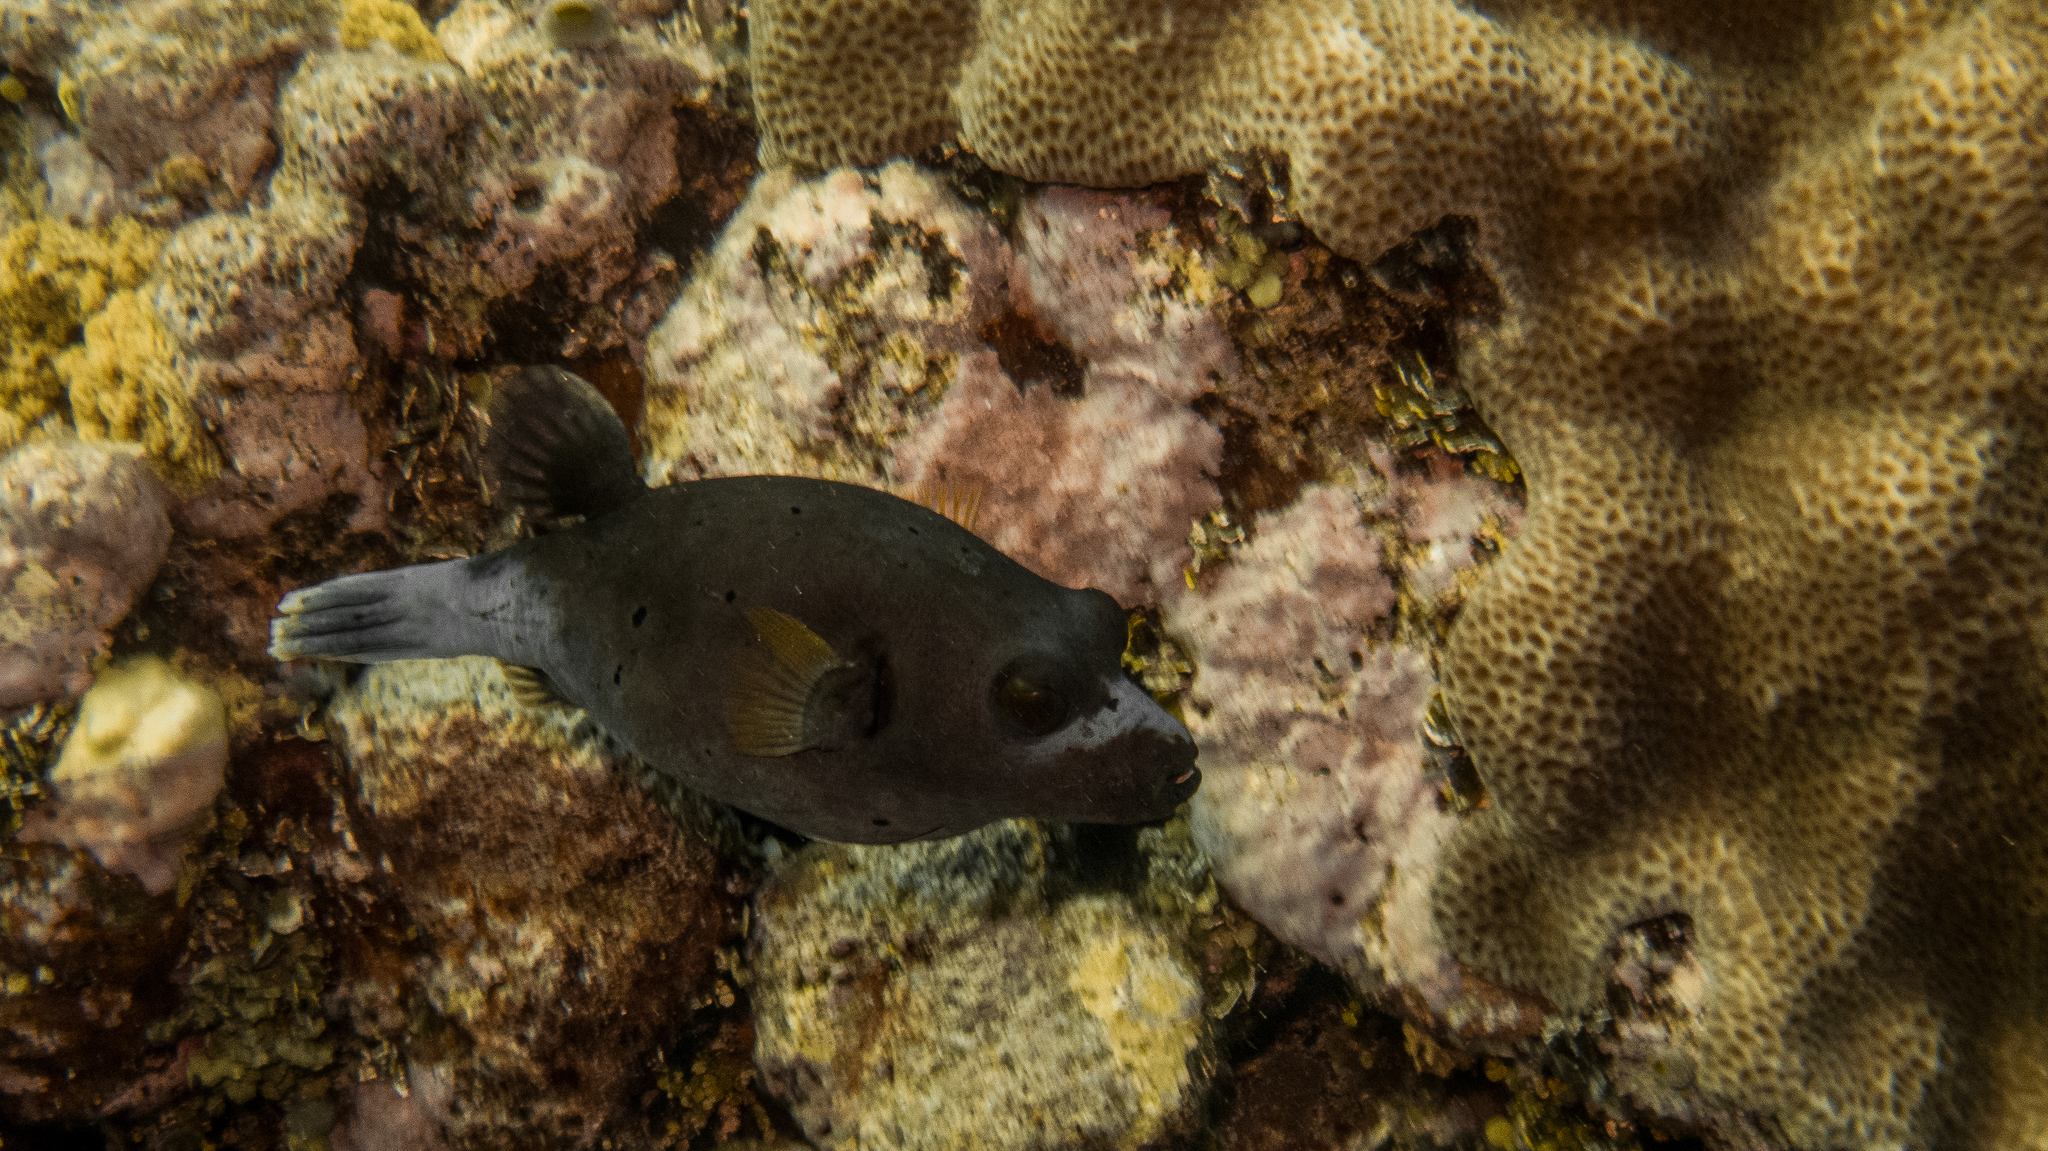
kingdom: Animalia
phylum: Chordata
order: Tetraodontiformes
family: Tetraodontidae
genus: Arothron
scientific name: Arothron nigropunctatus
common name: Black spotted blow fish
